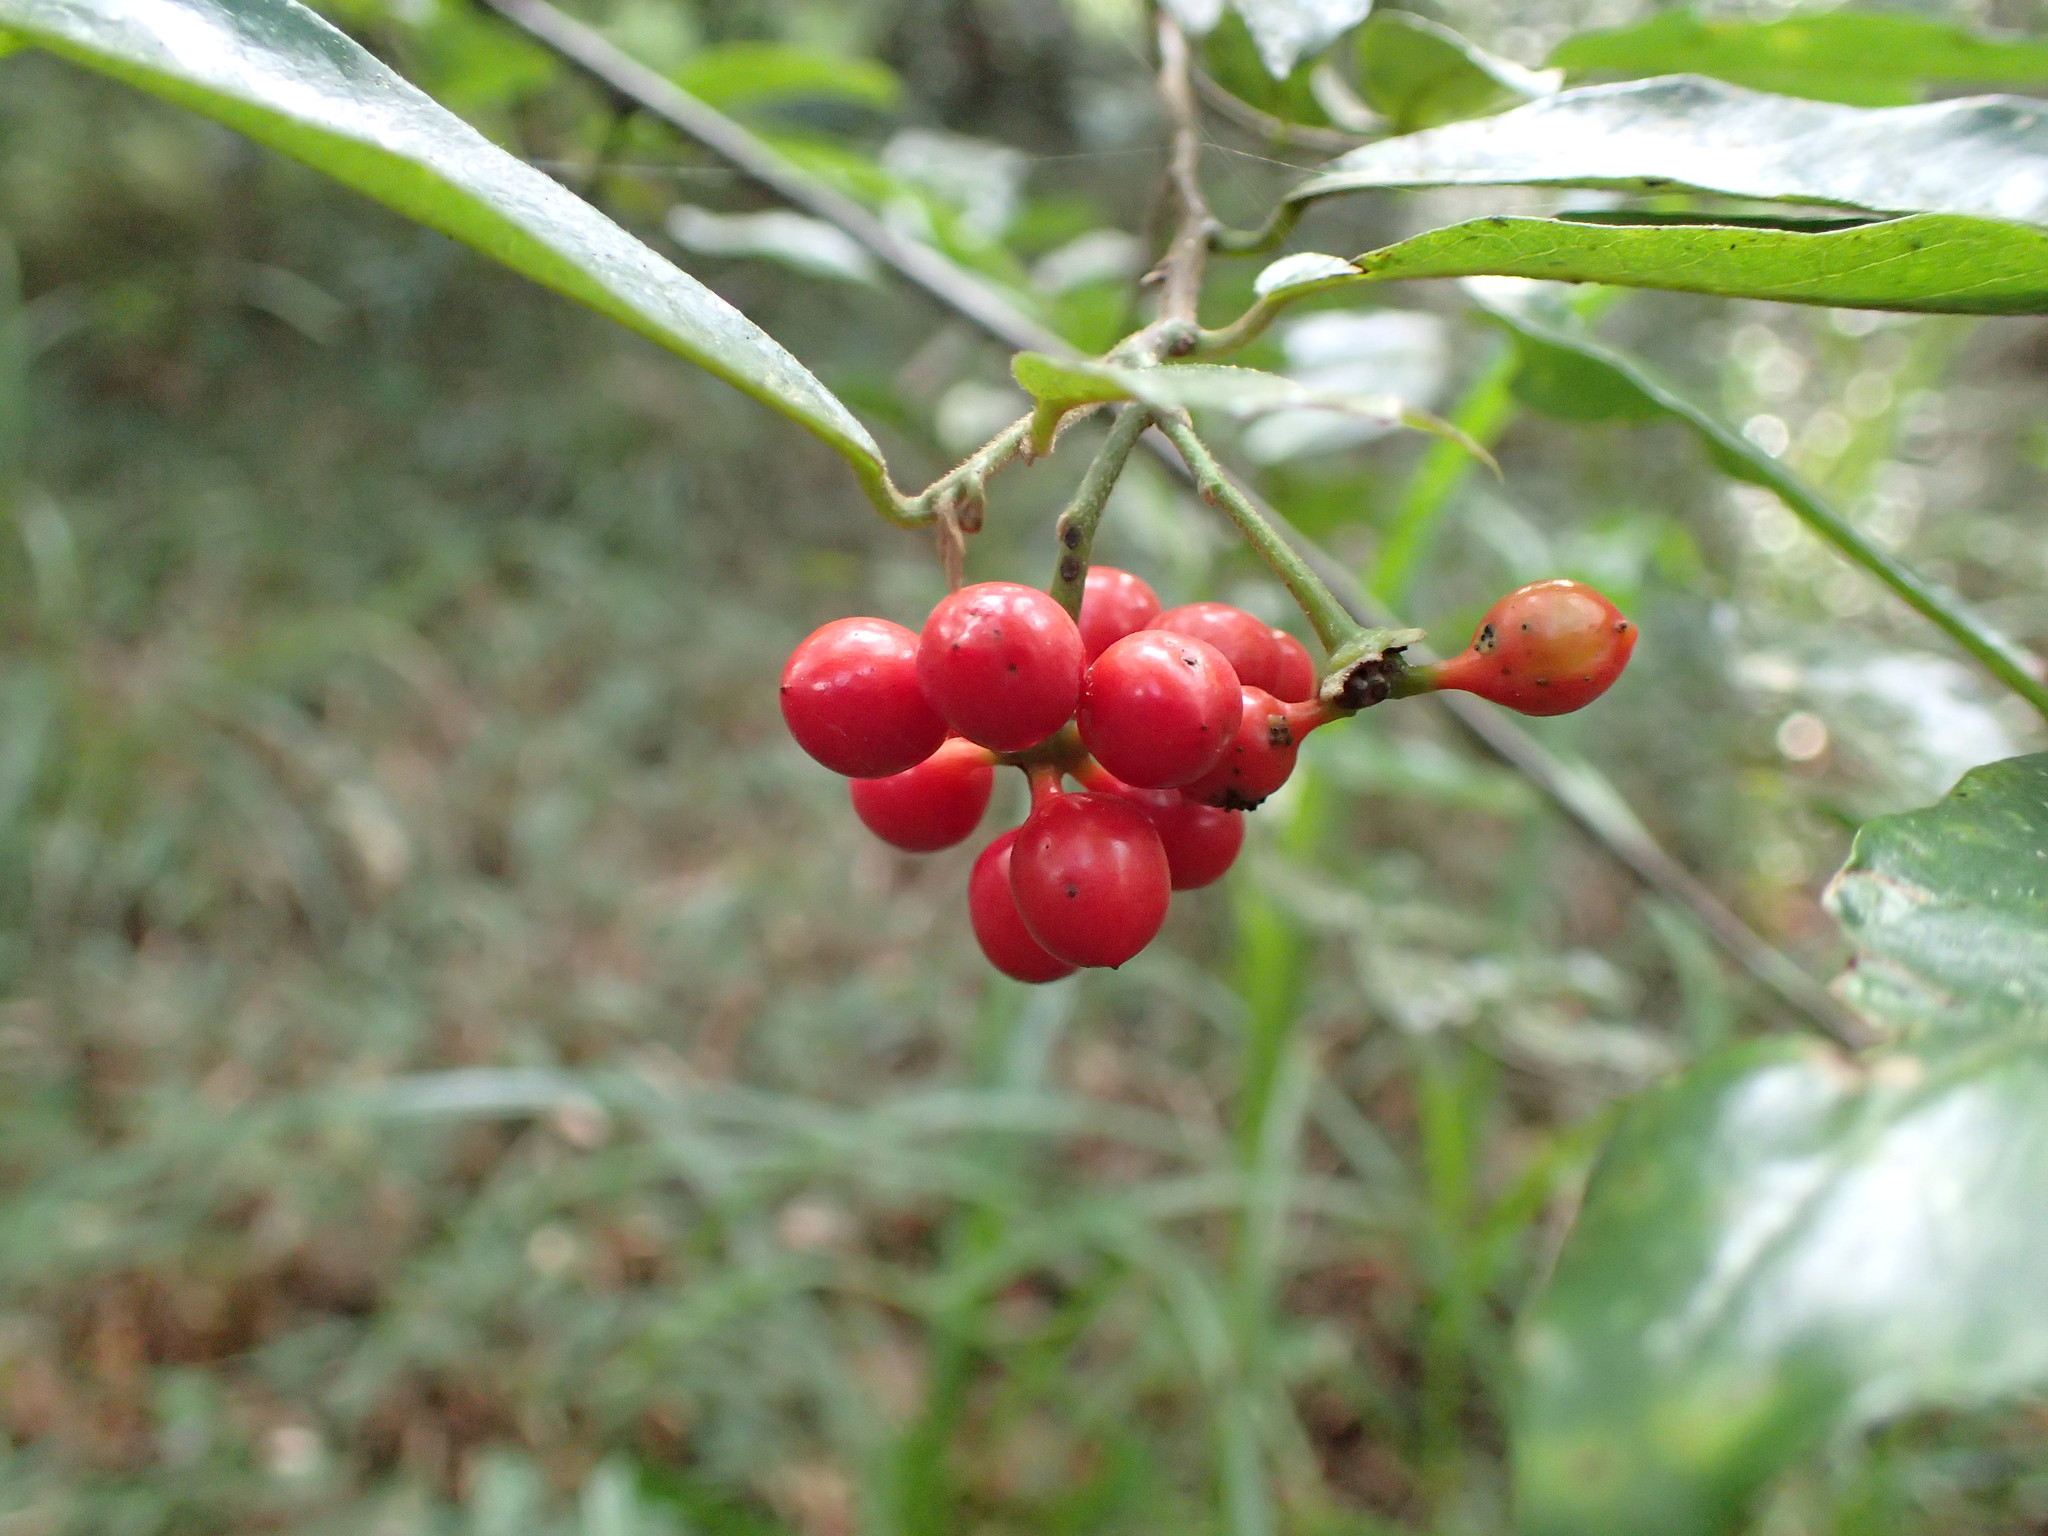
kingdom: Plantae
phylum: Tracheophyta
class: Magnoliopsida
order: Magnoliales
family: Annonaceae
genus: Monanthotaxis
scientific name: Monanthotaxis caffra
